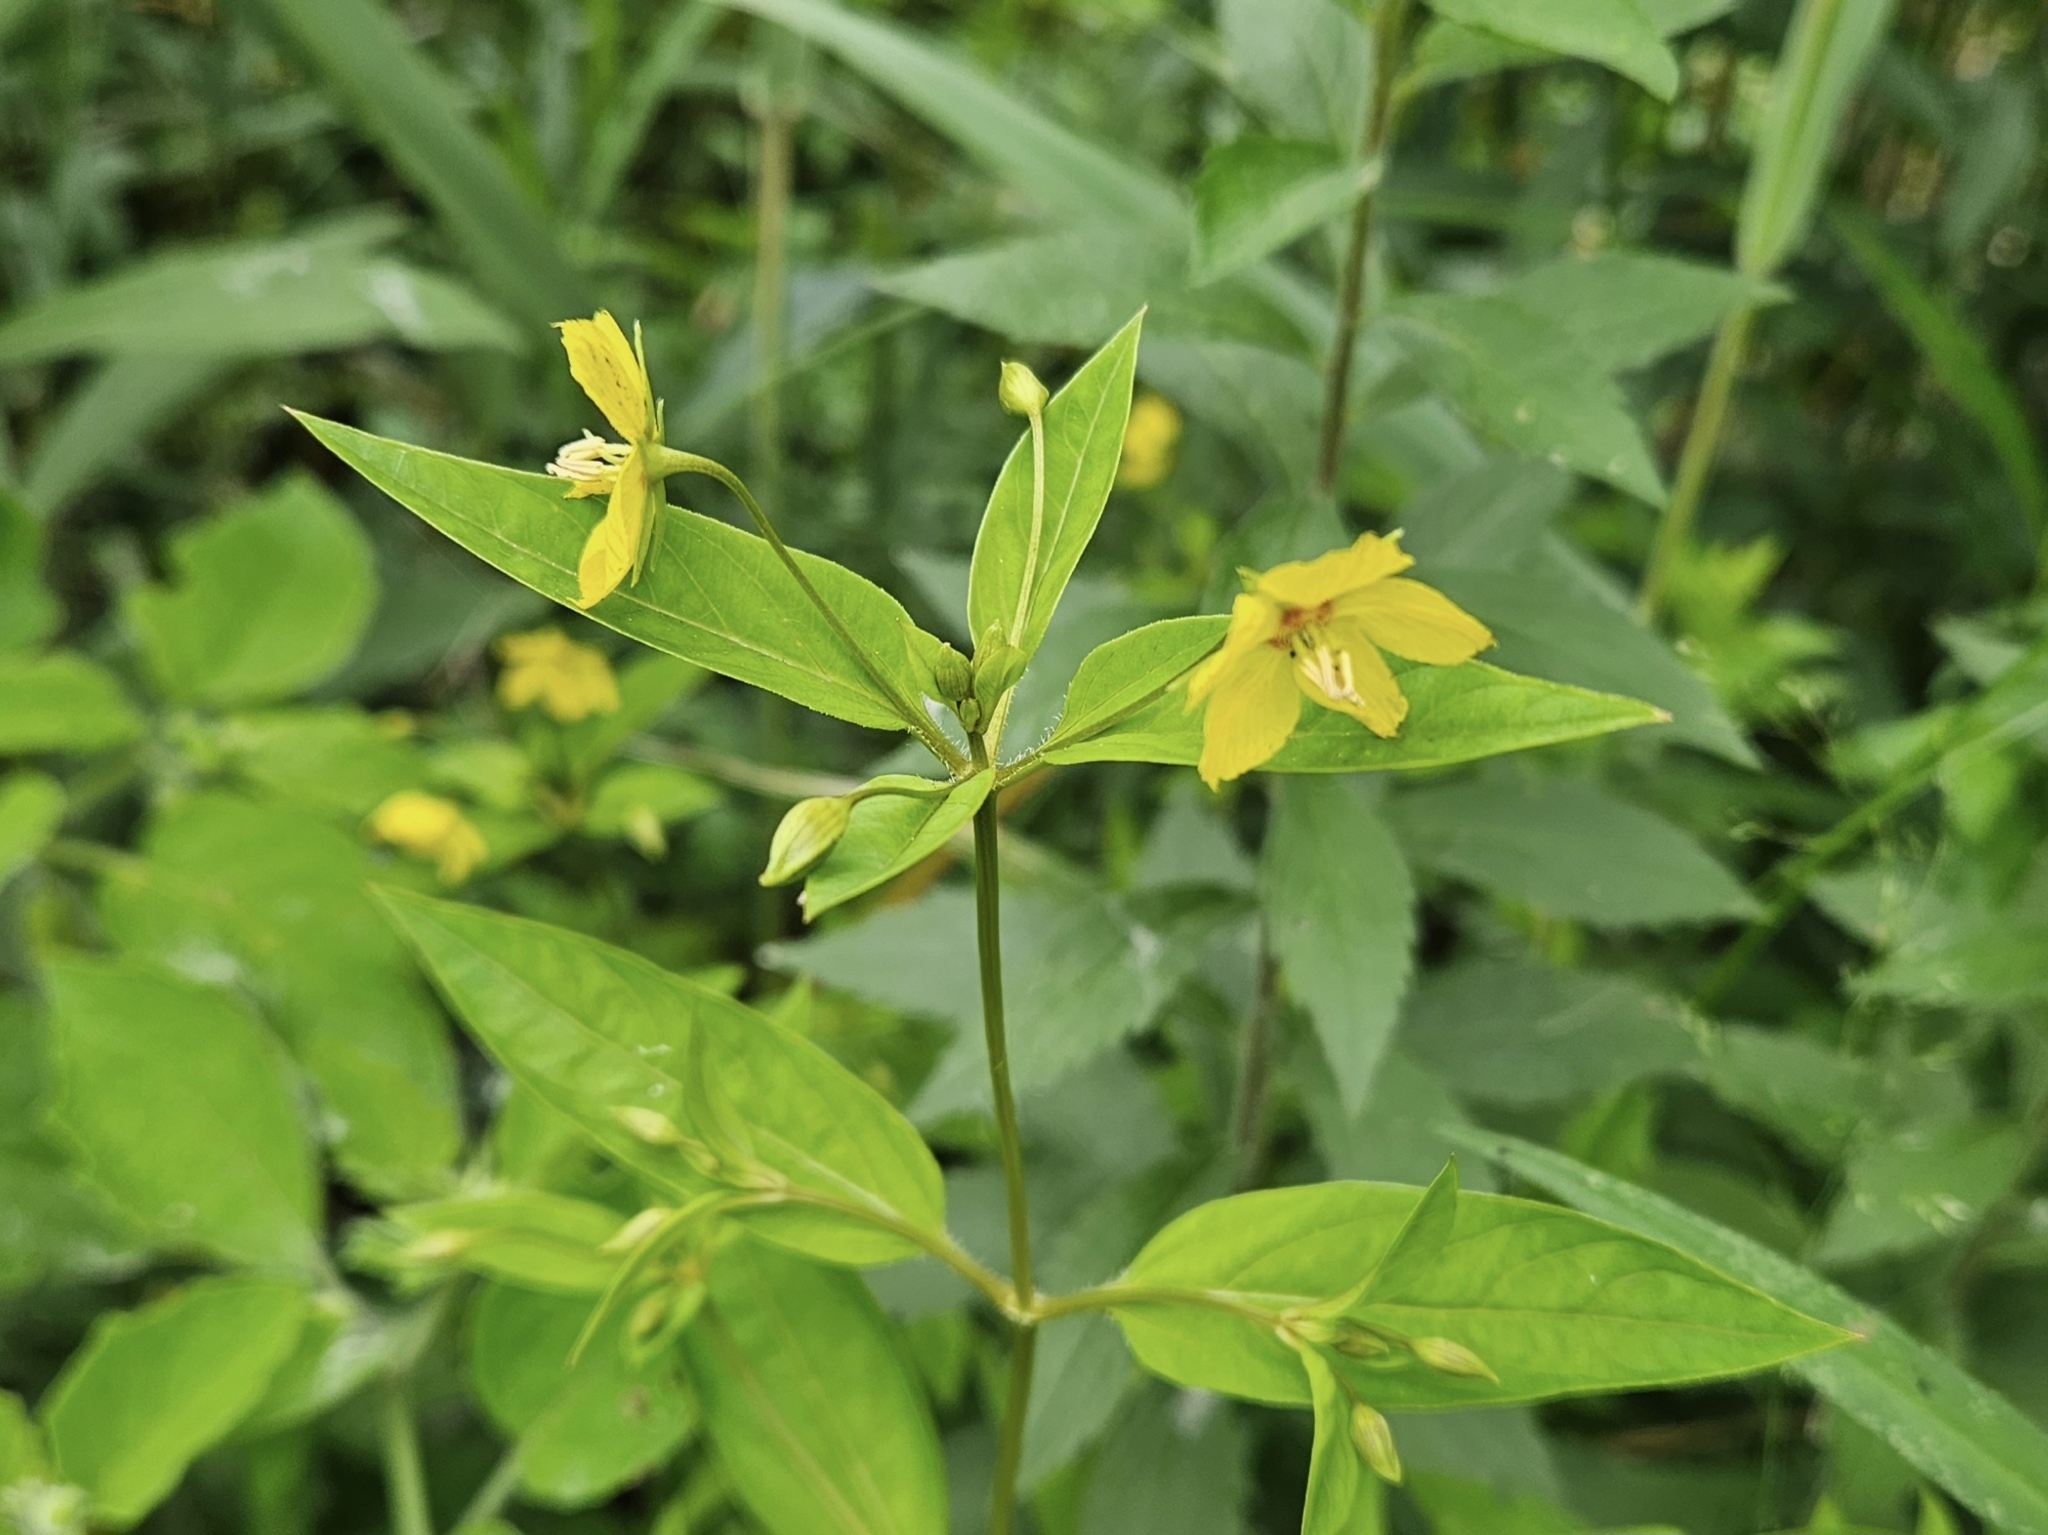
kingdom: Plantae
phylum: Tracheophyta
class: Magnoliopsida
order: Ericales
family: Primulaceae
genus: Lysimachia
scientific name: Lysimachia ciliata
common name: Fringed loosestrife
